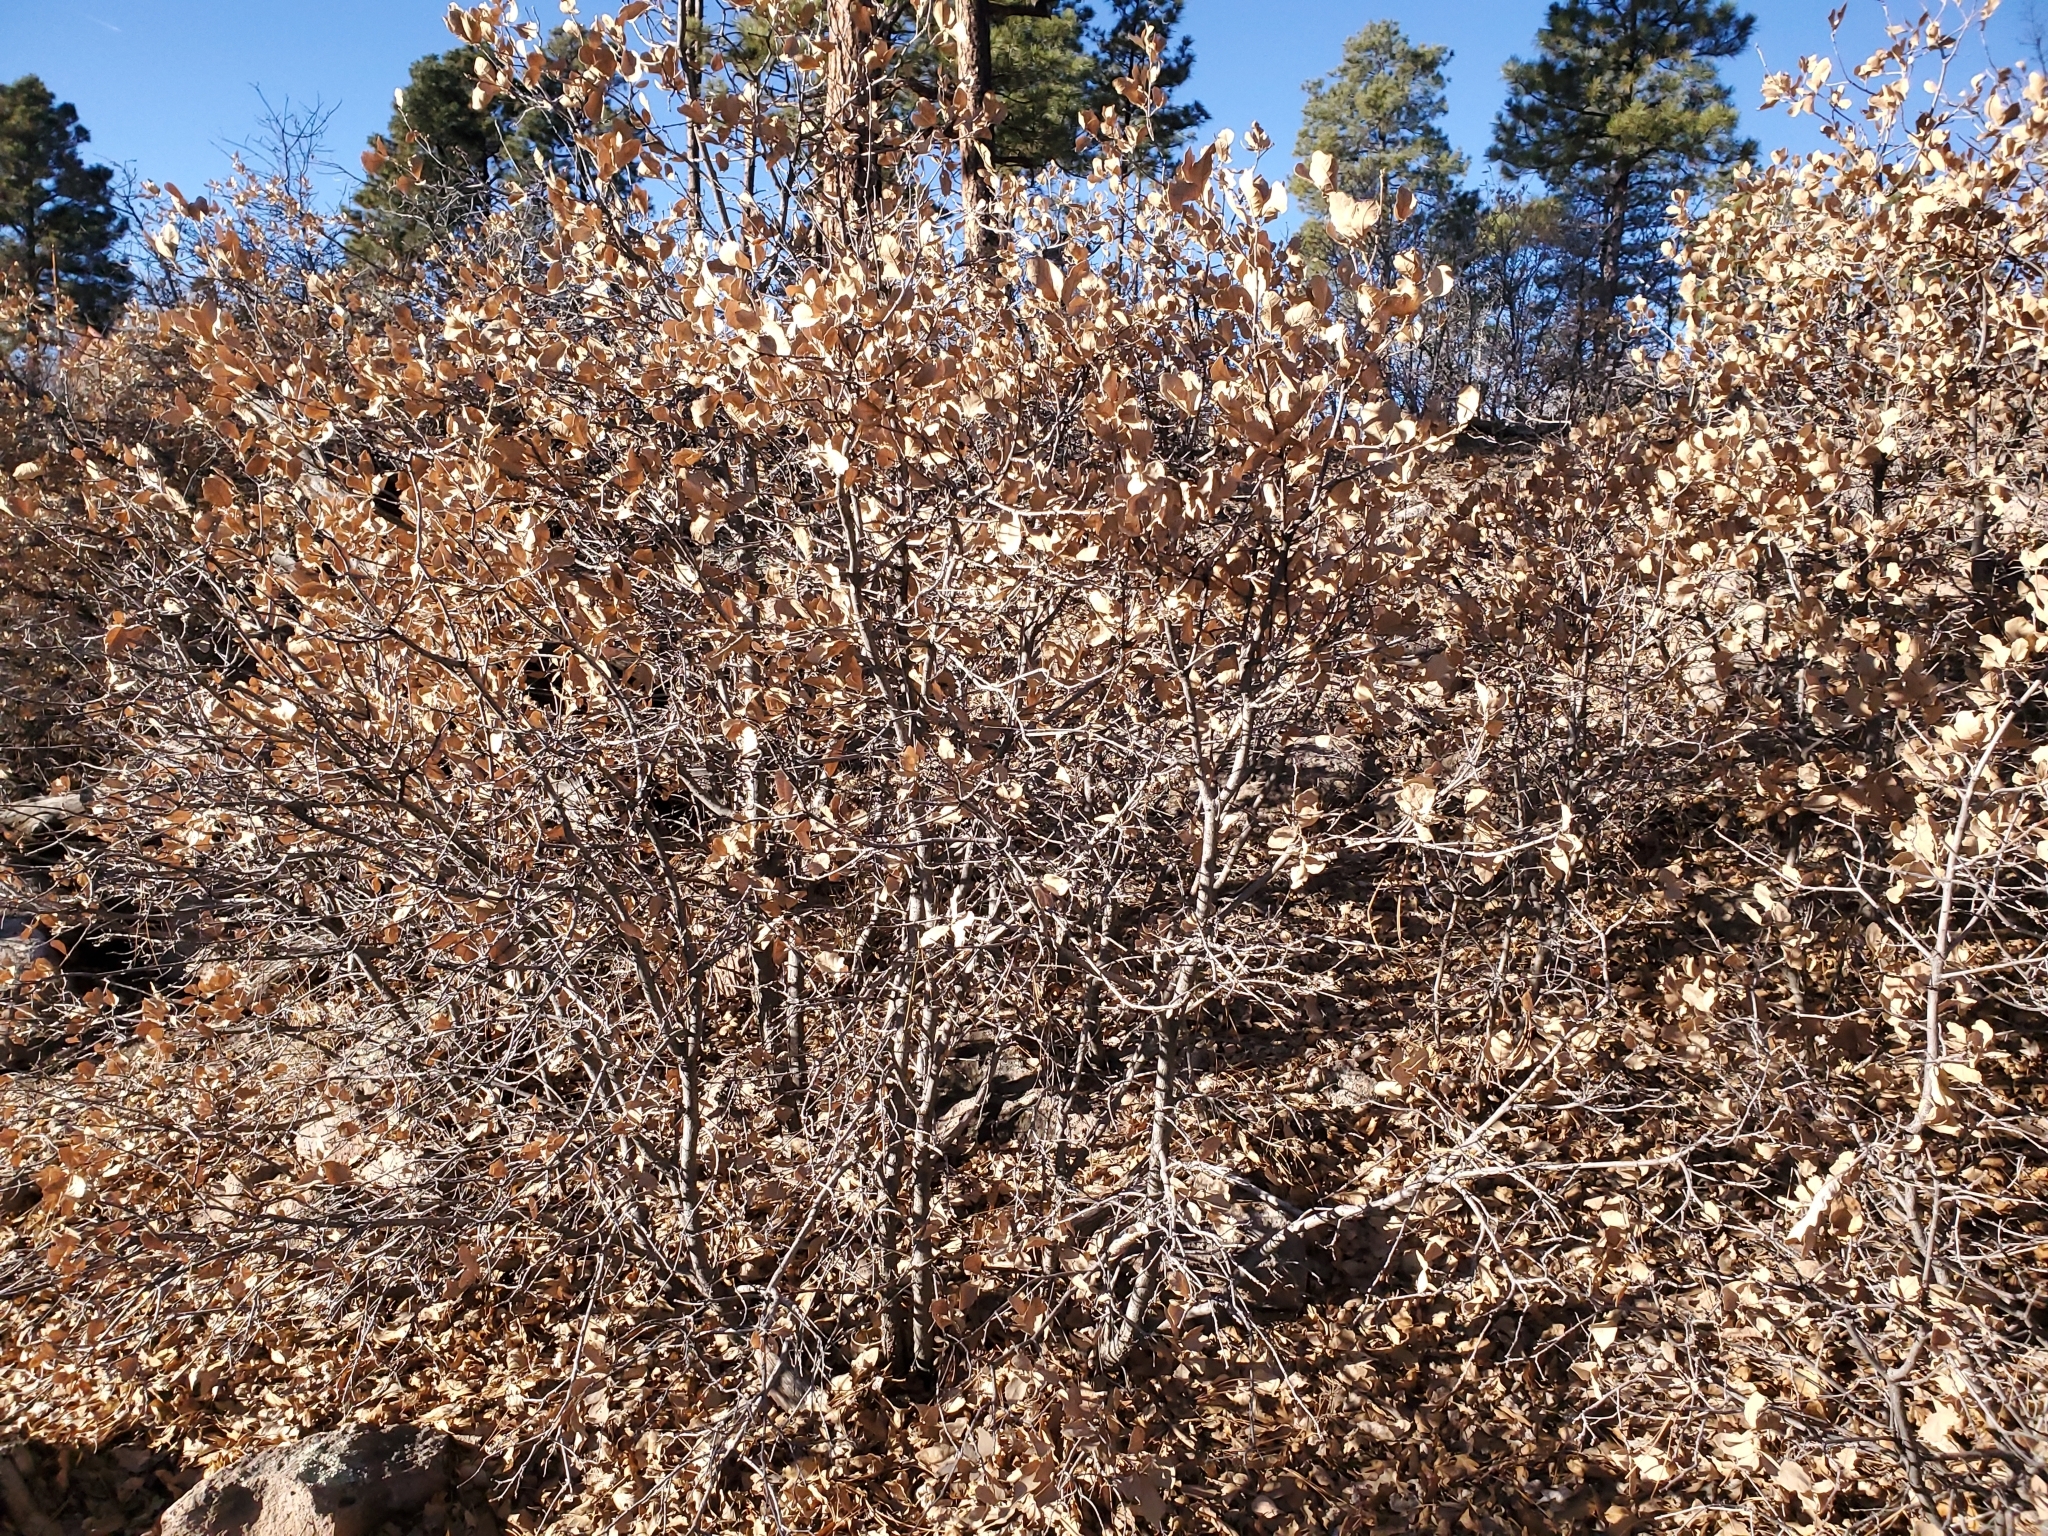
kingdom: Plantae
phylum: Tracheophyta
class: Magnoliopsida
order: Fagales
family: Fagaceae
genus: Quercus
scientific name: Quercus undulata
